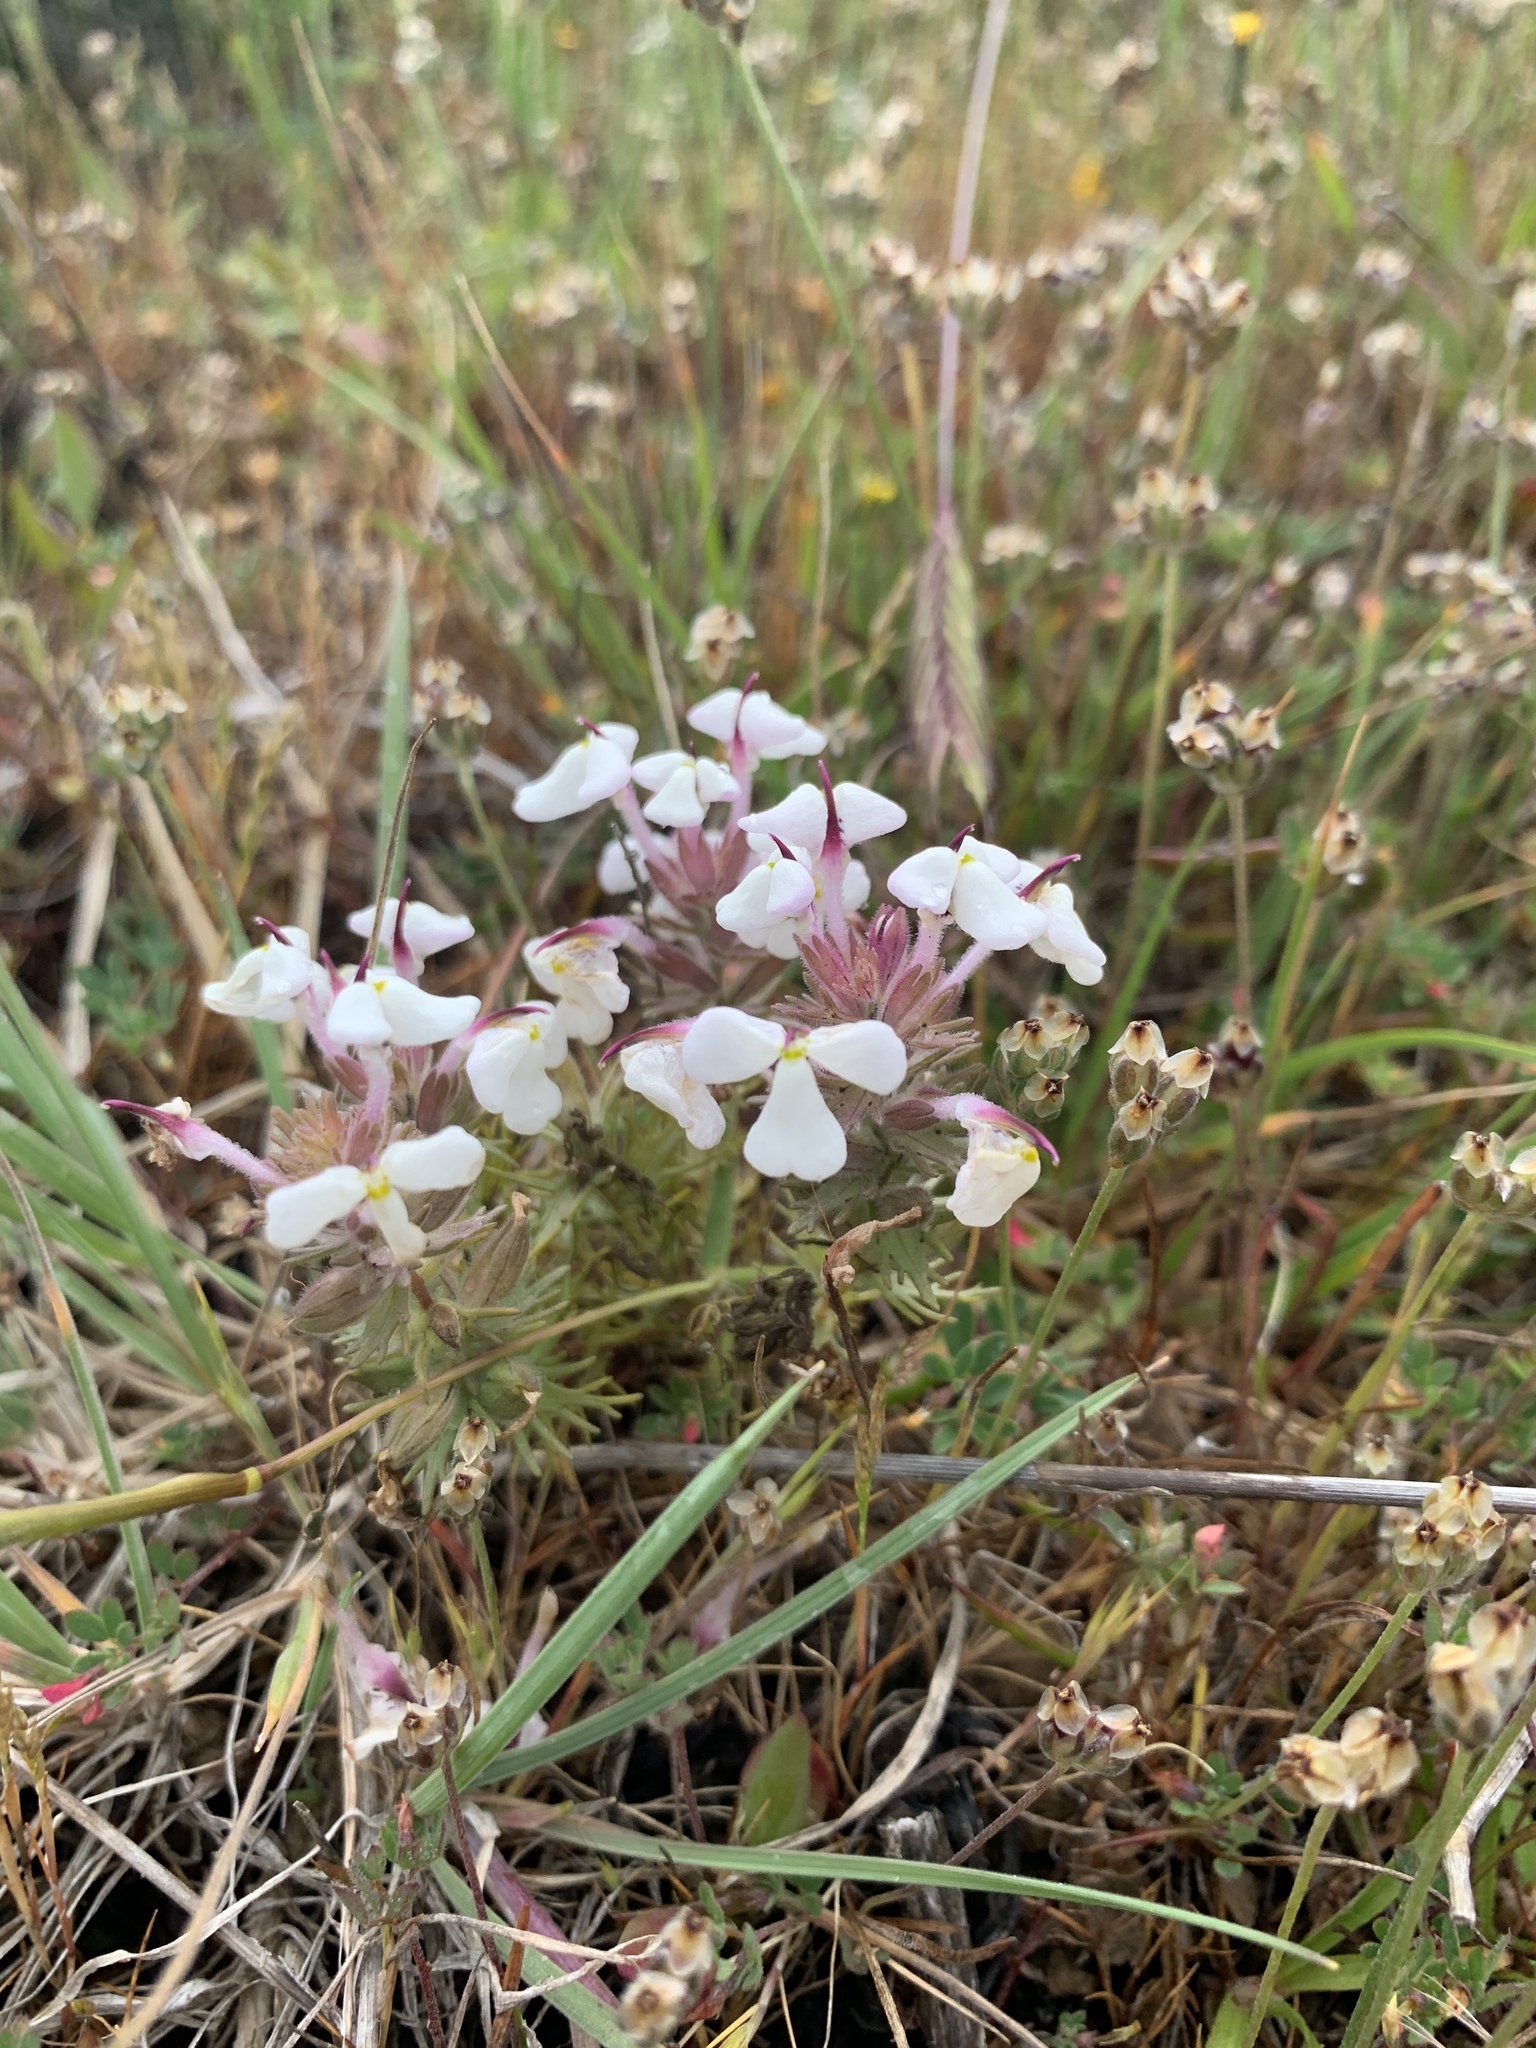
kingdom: Plantae
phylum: Tracheophyta
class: Magnoliopsida
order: Lamiales
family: Orobanchaceae
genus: Triphysaria
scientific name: Triphysaria eriantha
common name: Johnny-tuck
